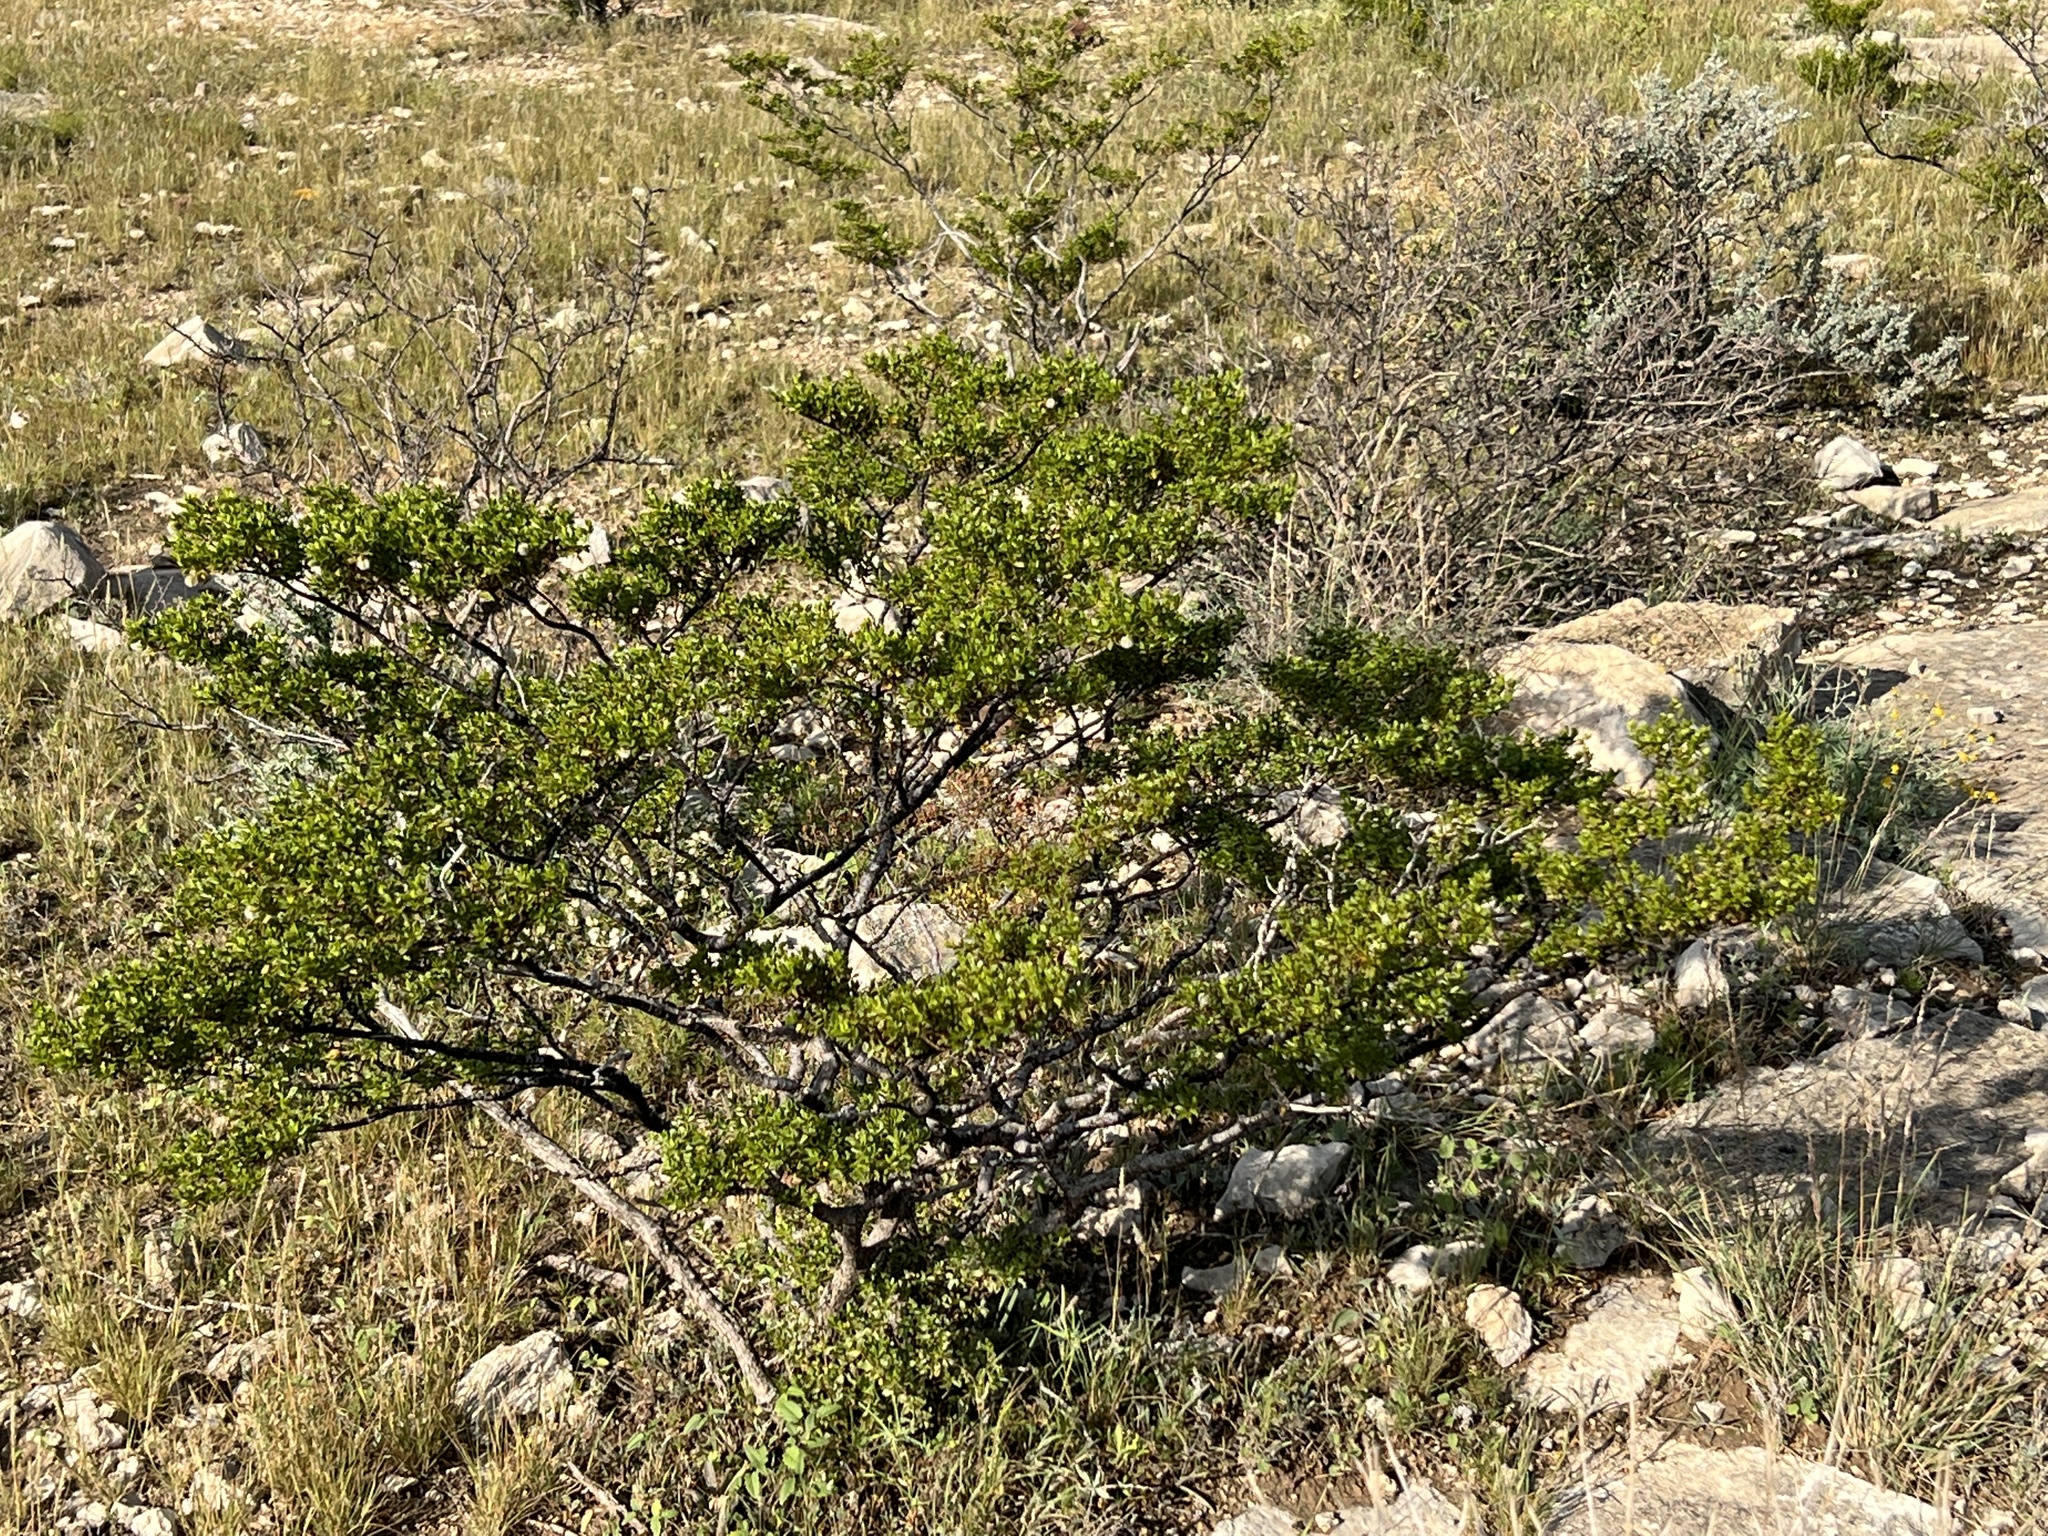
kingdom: Plantae
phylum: Tracheophyta
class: Magnoliopsida
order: Zygophyllales
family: Zygophyllaceae
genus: Larrea
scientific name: Larrea tridentata
